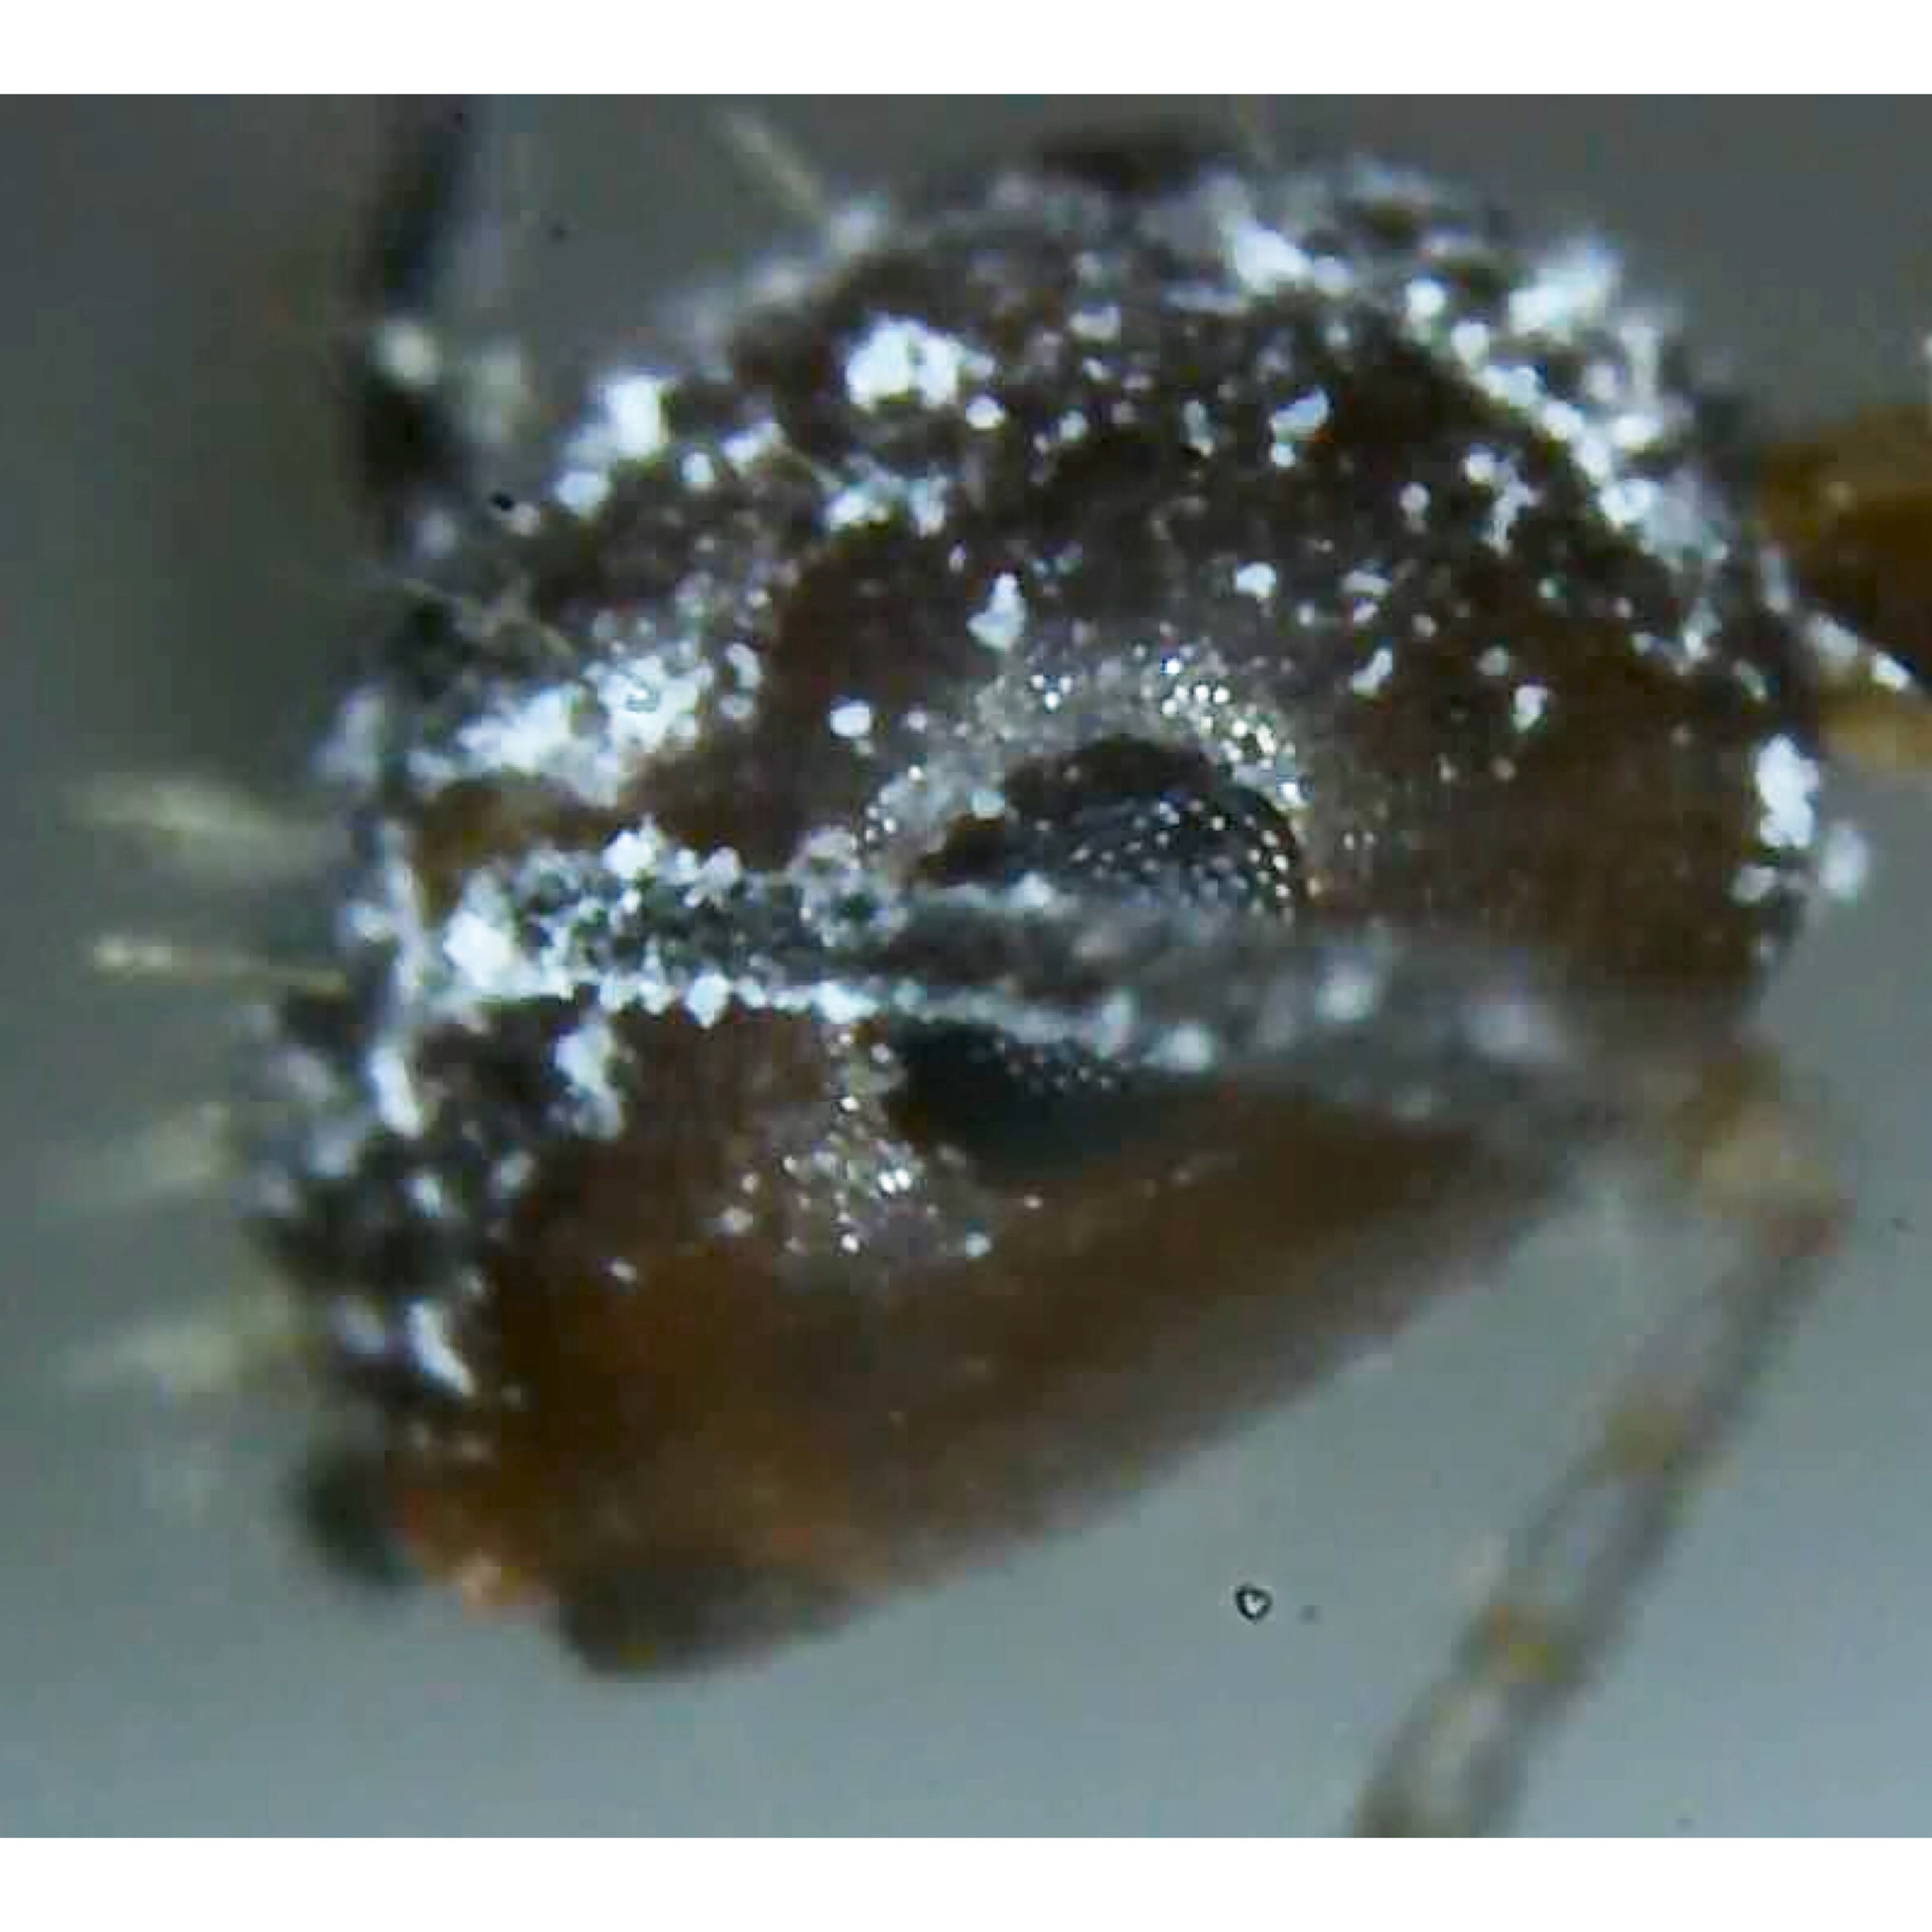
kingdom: Animalia
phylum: Arthropoda
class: Insecta
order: Hymenoptera
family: Formicidae
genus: Camponotus
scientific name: Camponotus decipiens
